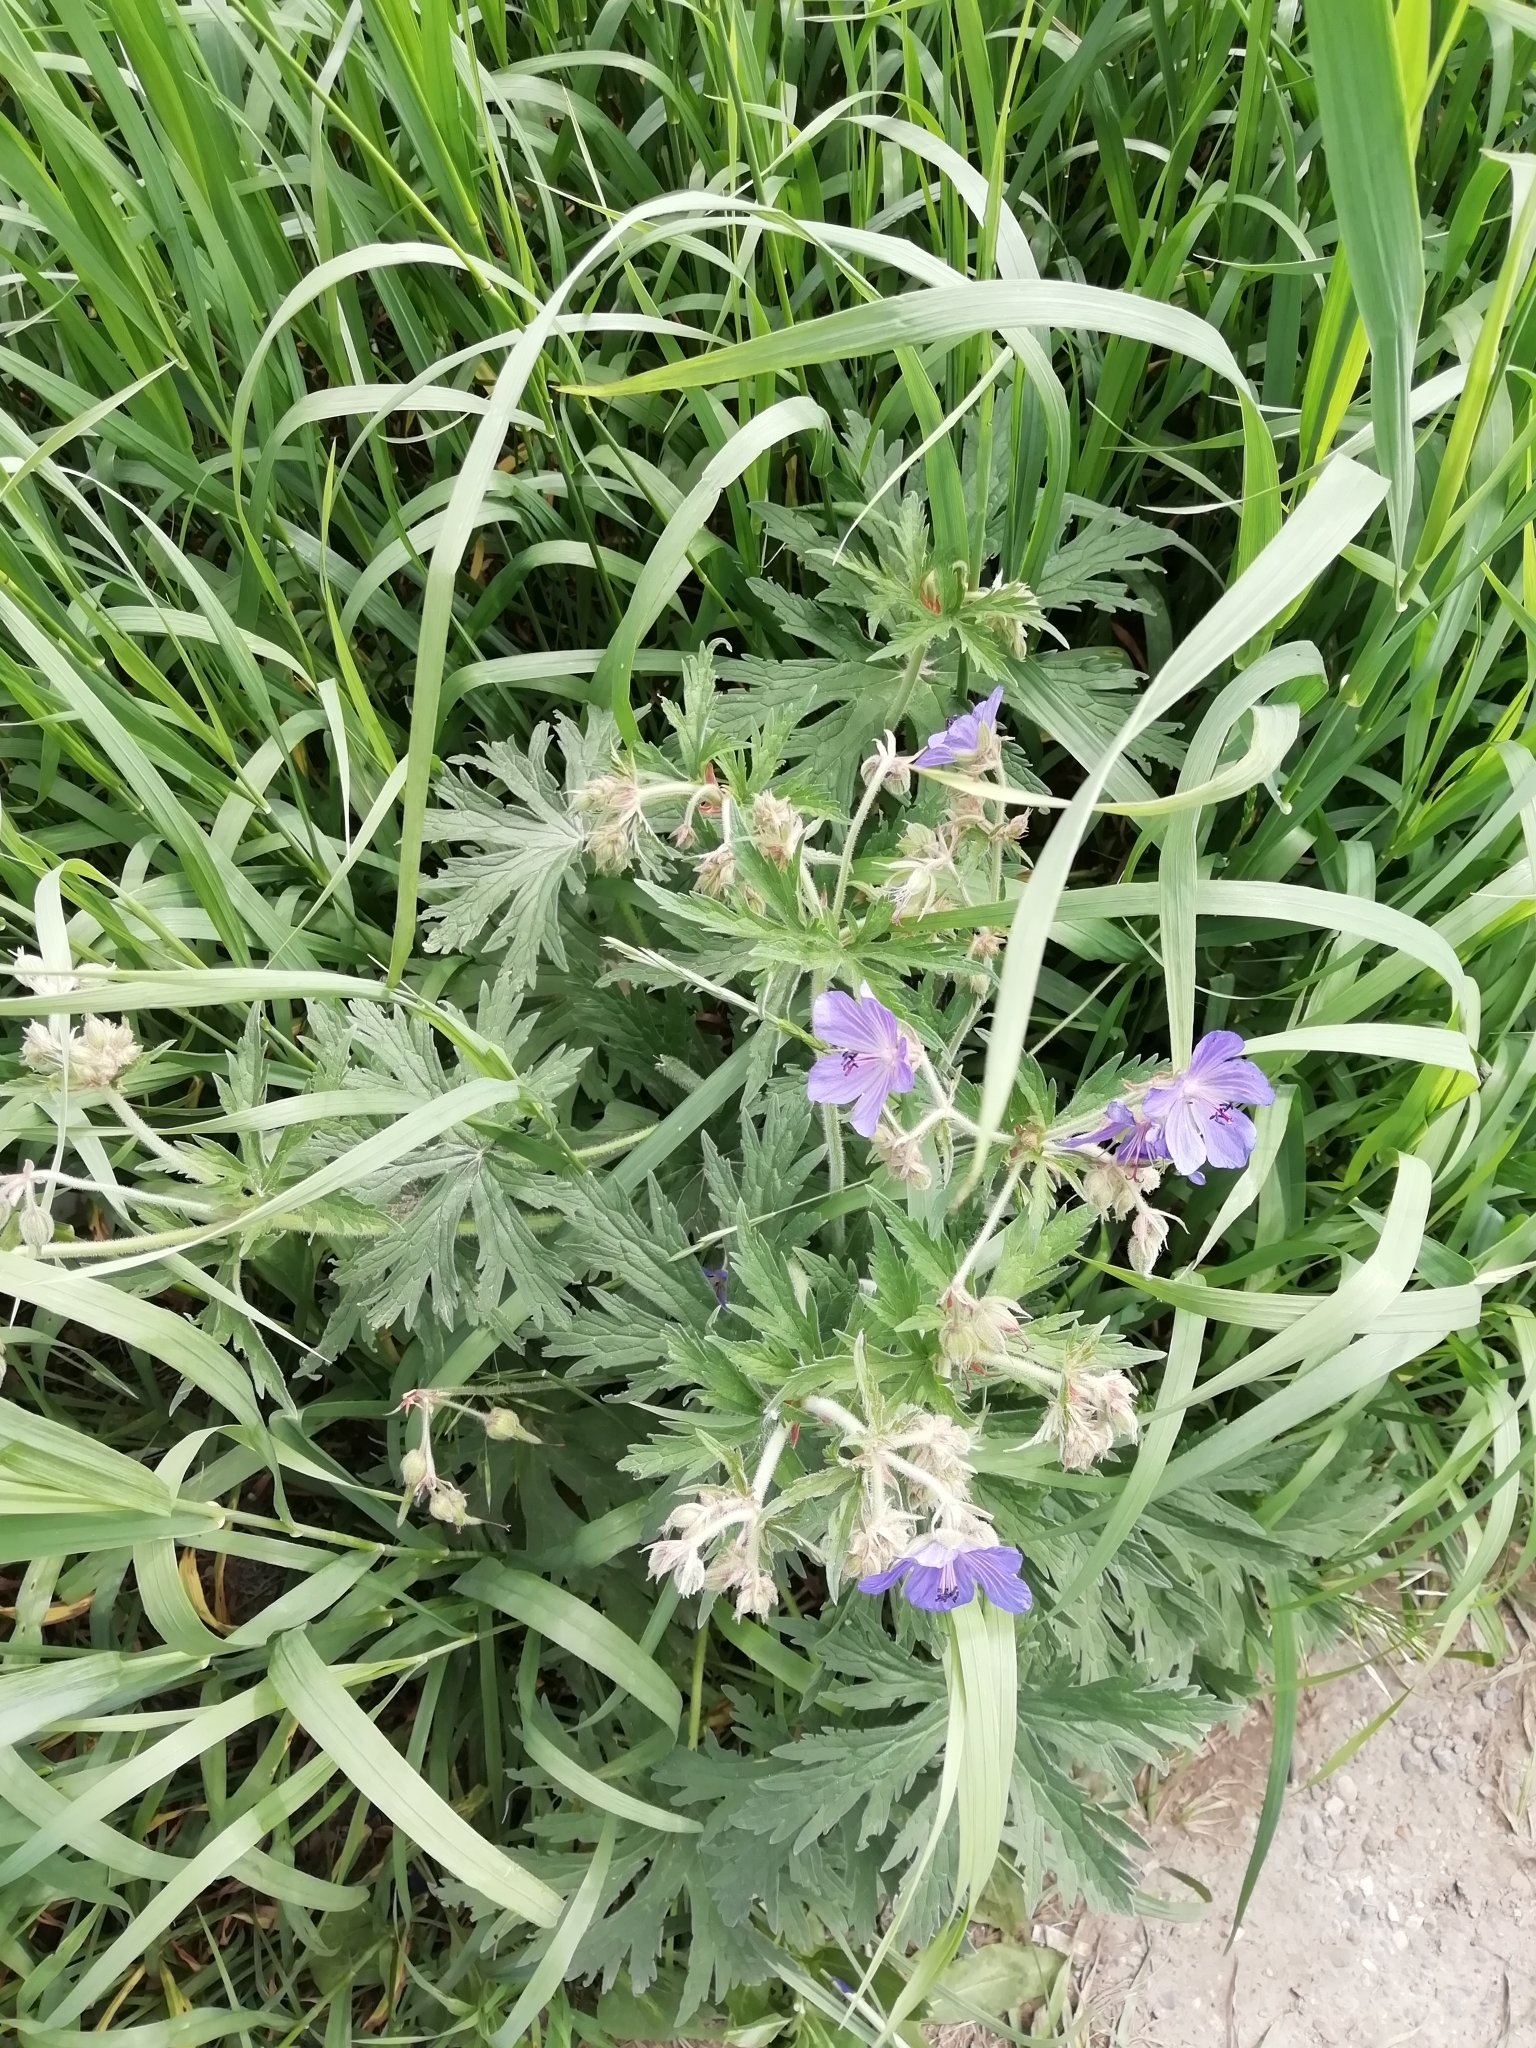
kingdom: Plantae
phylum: Tracheophyta
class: Magnoliopsida
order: Geraniales
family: Geraniaceae
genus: Geranium
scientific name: Geranium pratense
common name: Meadow crane's-bill
